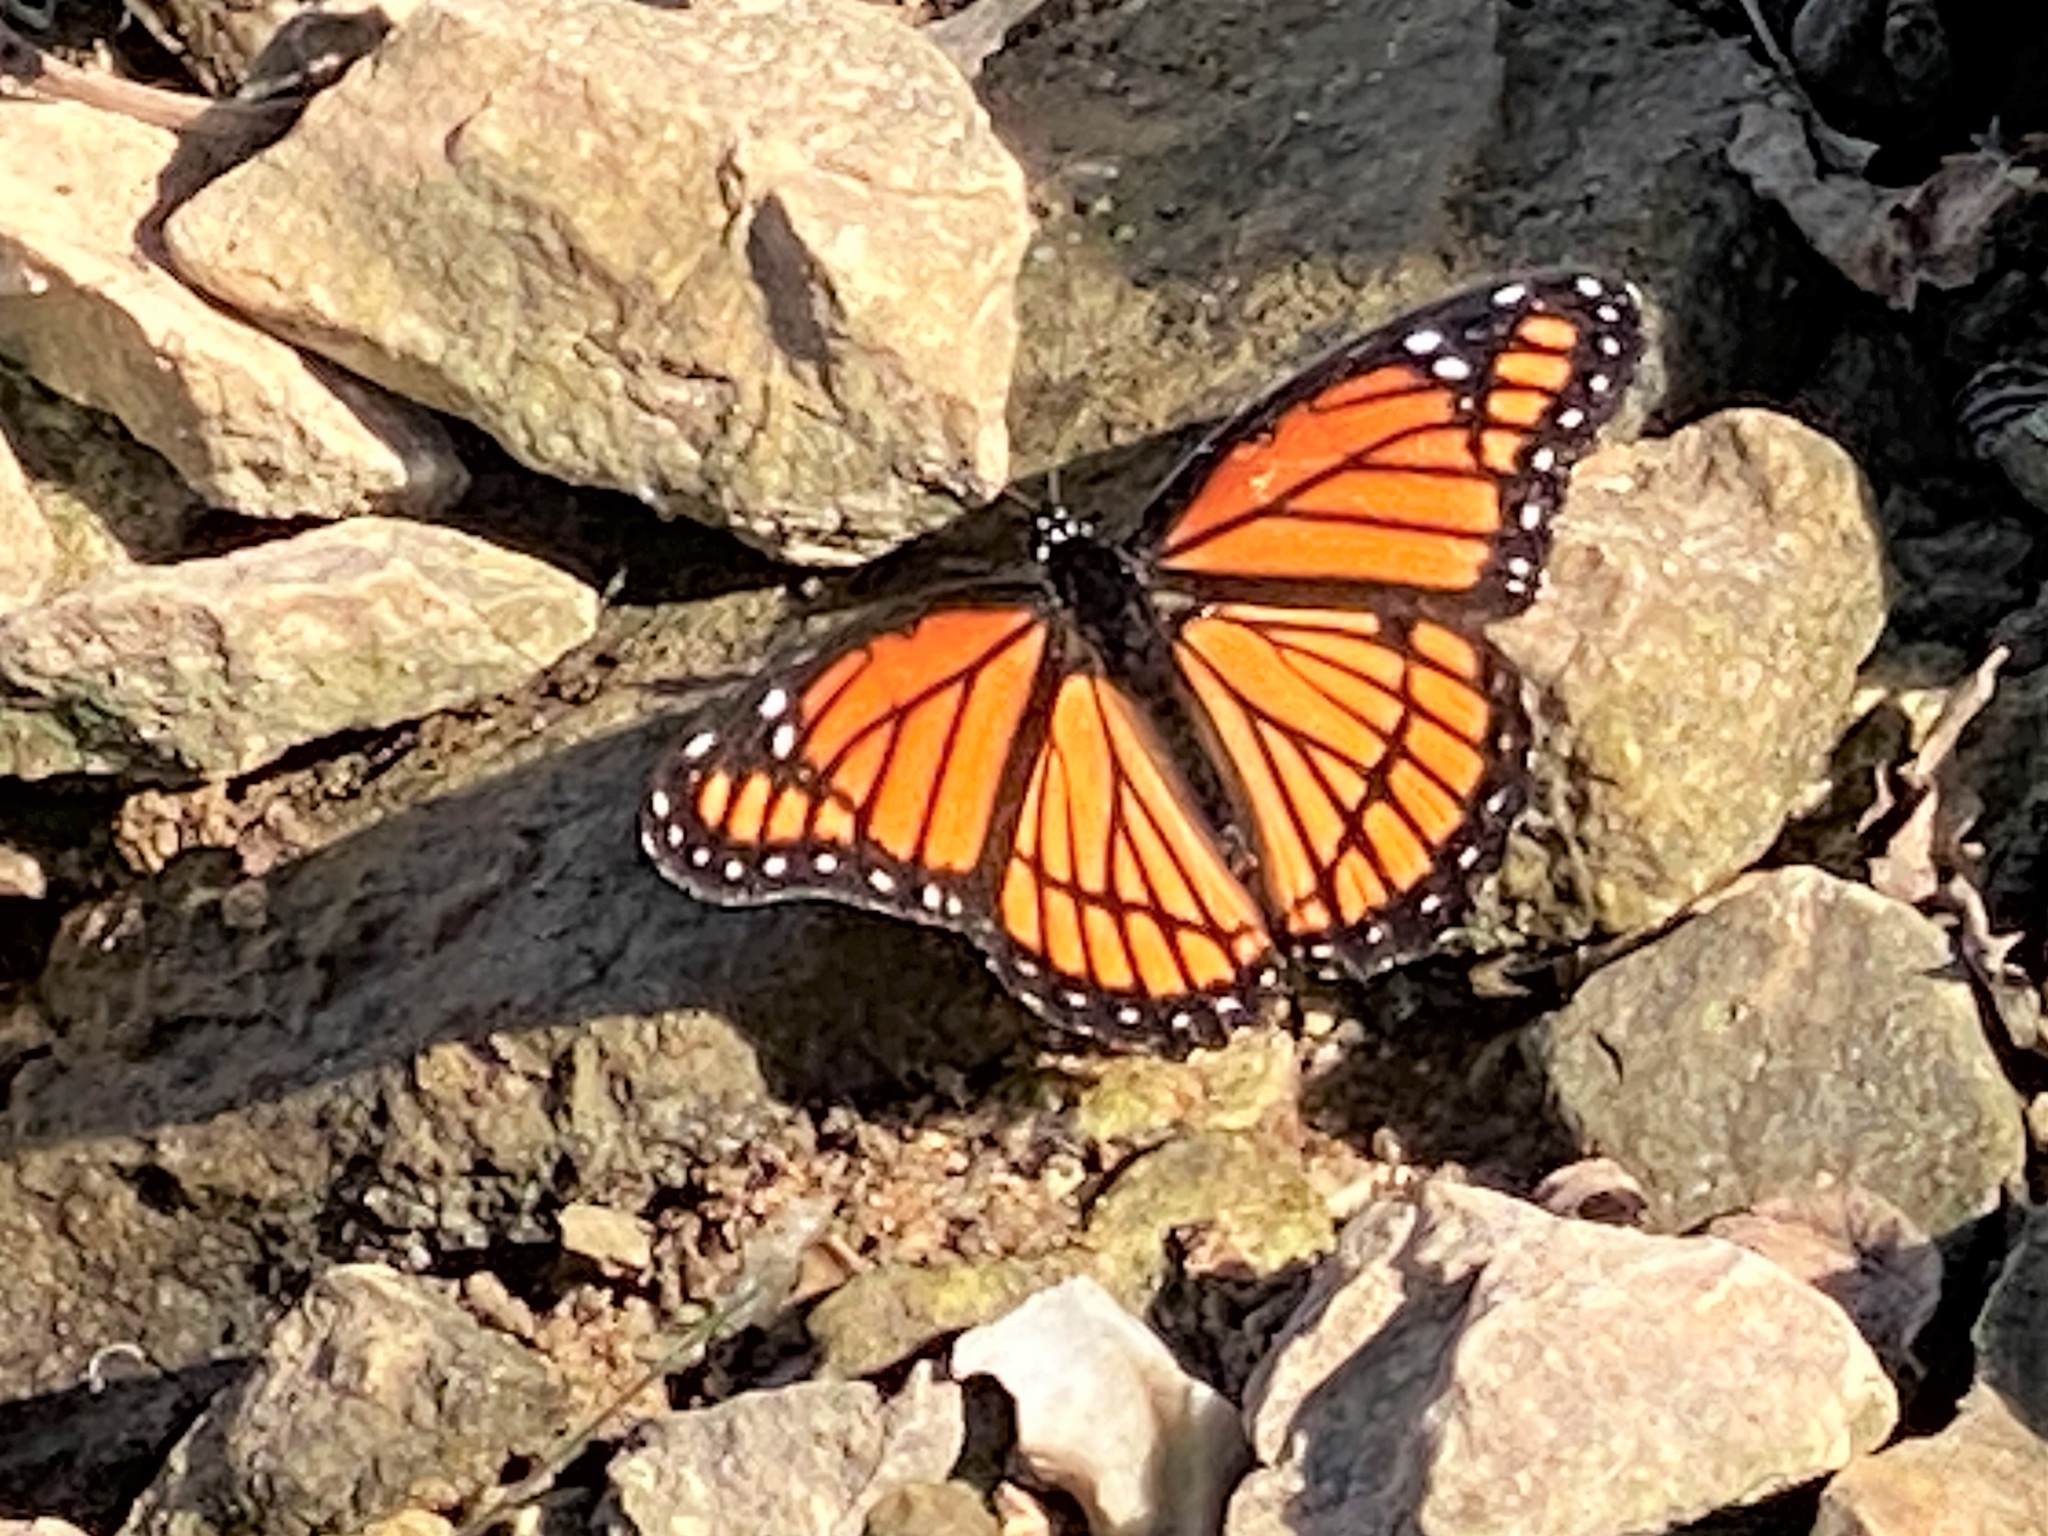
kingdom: Animalia
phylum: Arthropoda
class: Insecta
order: Lepidoptera
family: Nymphalidae
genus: Limenitis
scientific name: Limenitis archippus
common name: Viceroy
